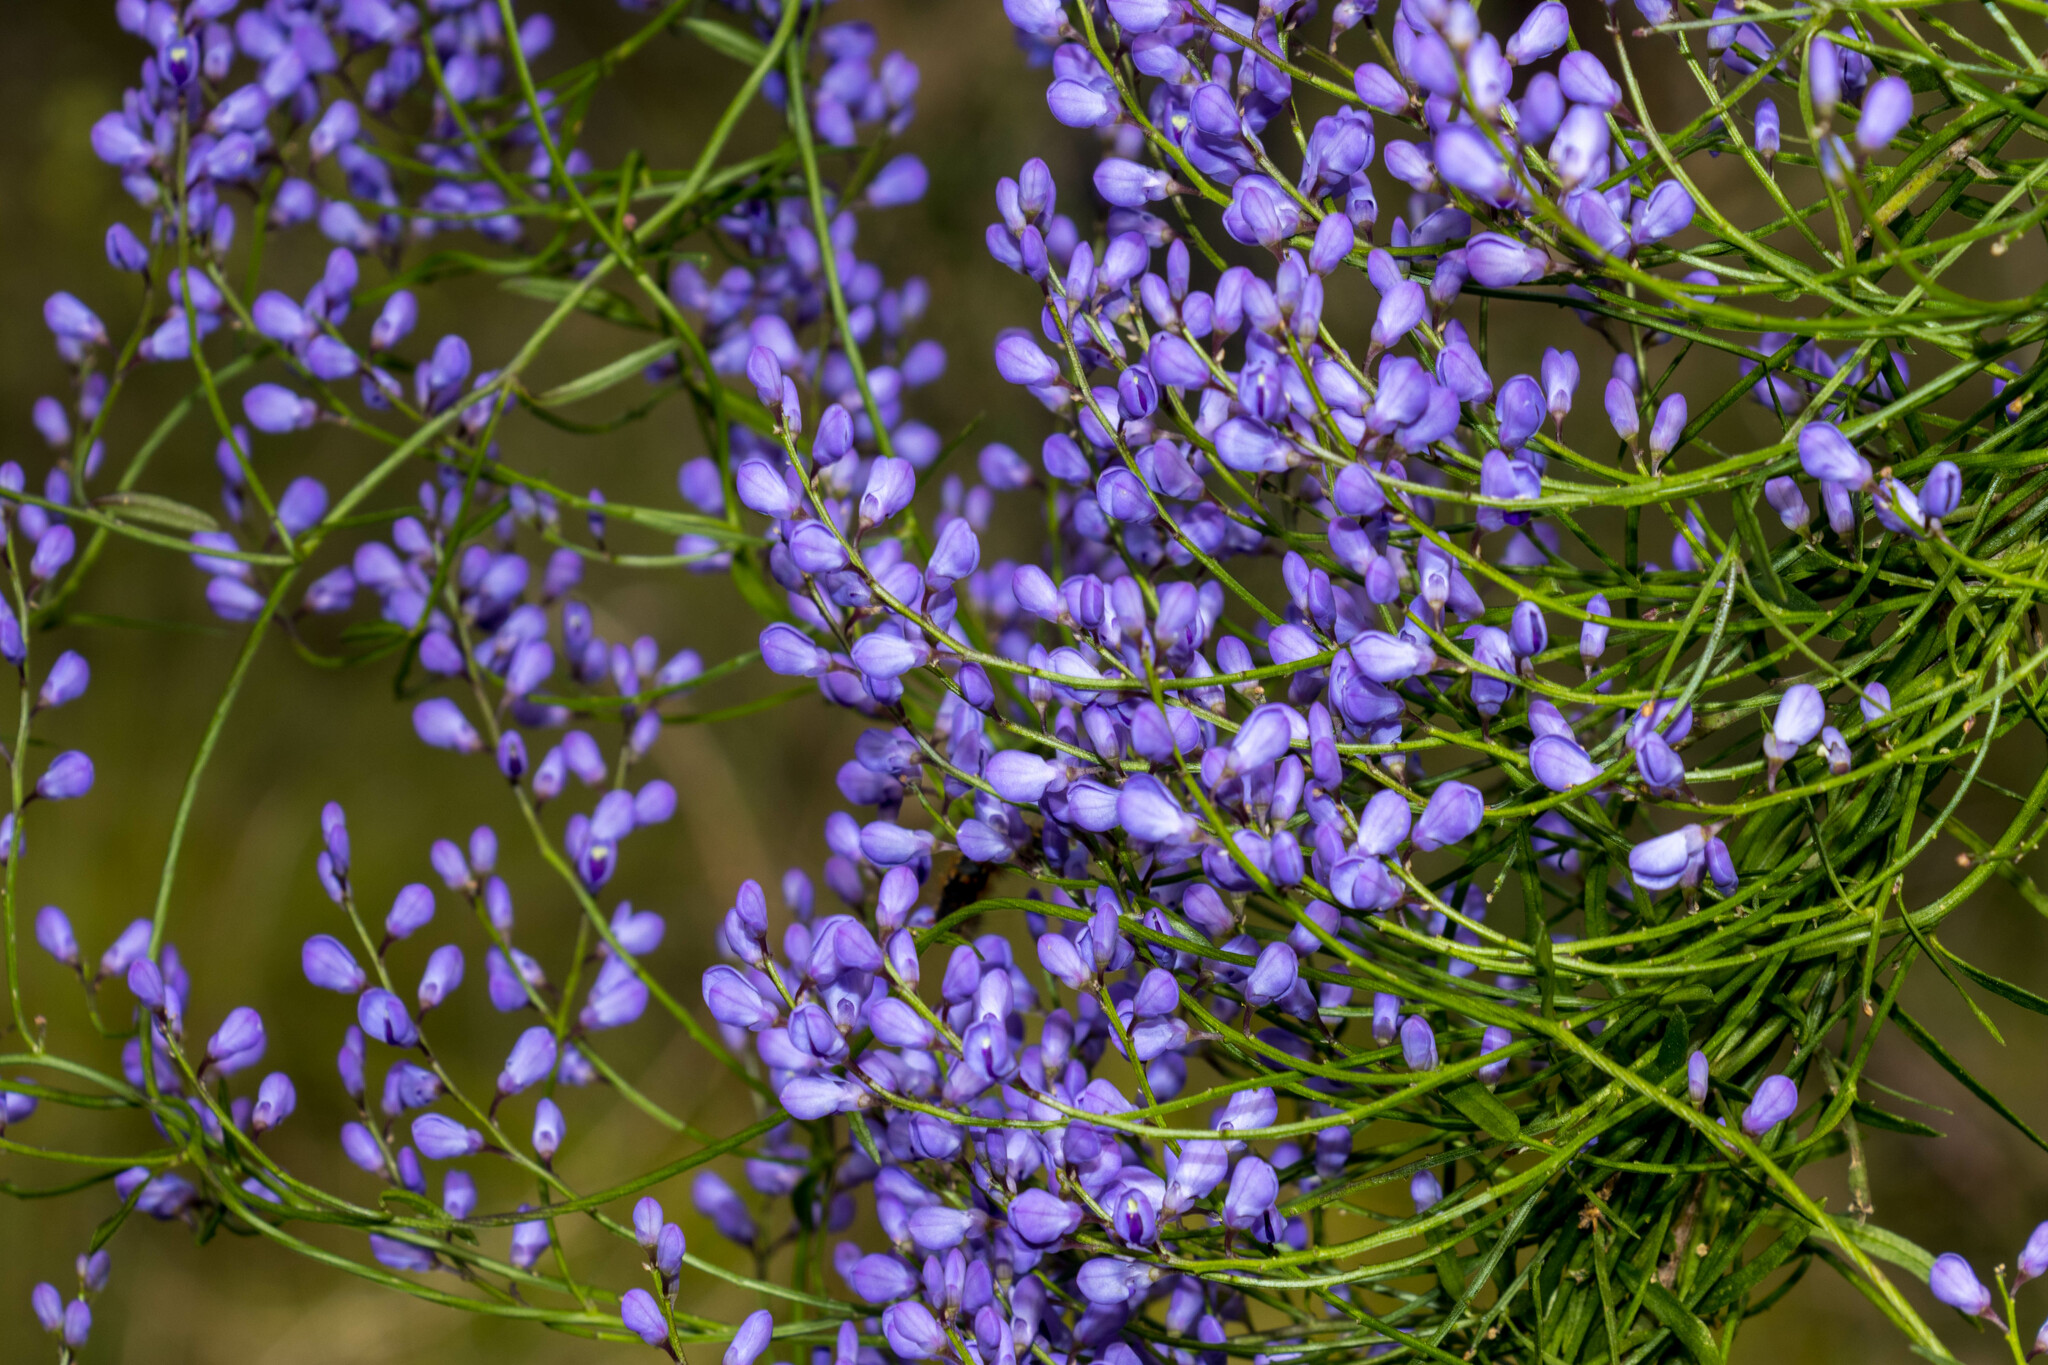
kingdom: Plantae
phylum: Tracheophyta
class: Magnoliopsida
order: Fabales
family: Polygalaceae
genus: Comesperma
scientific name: Comesperma volubile
